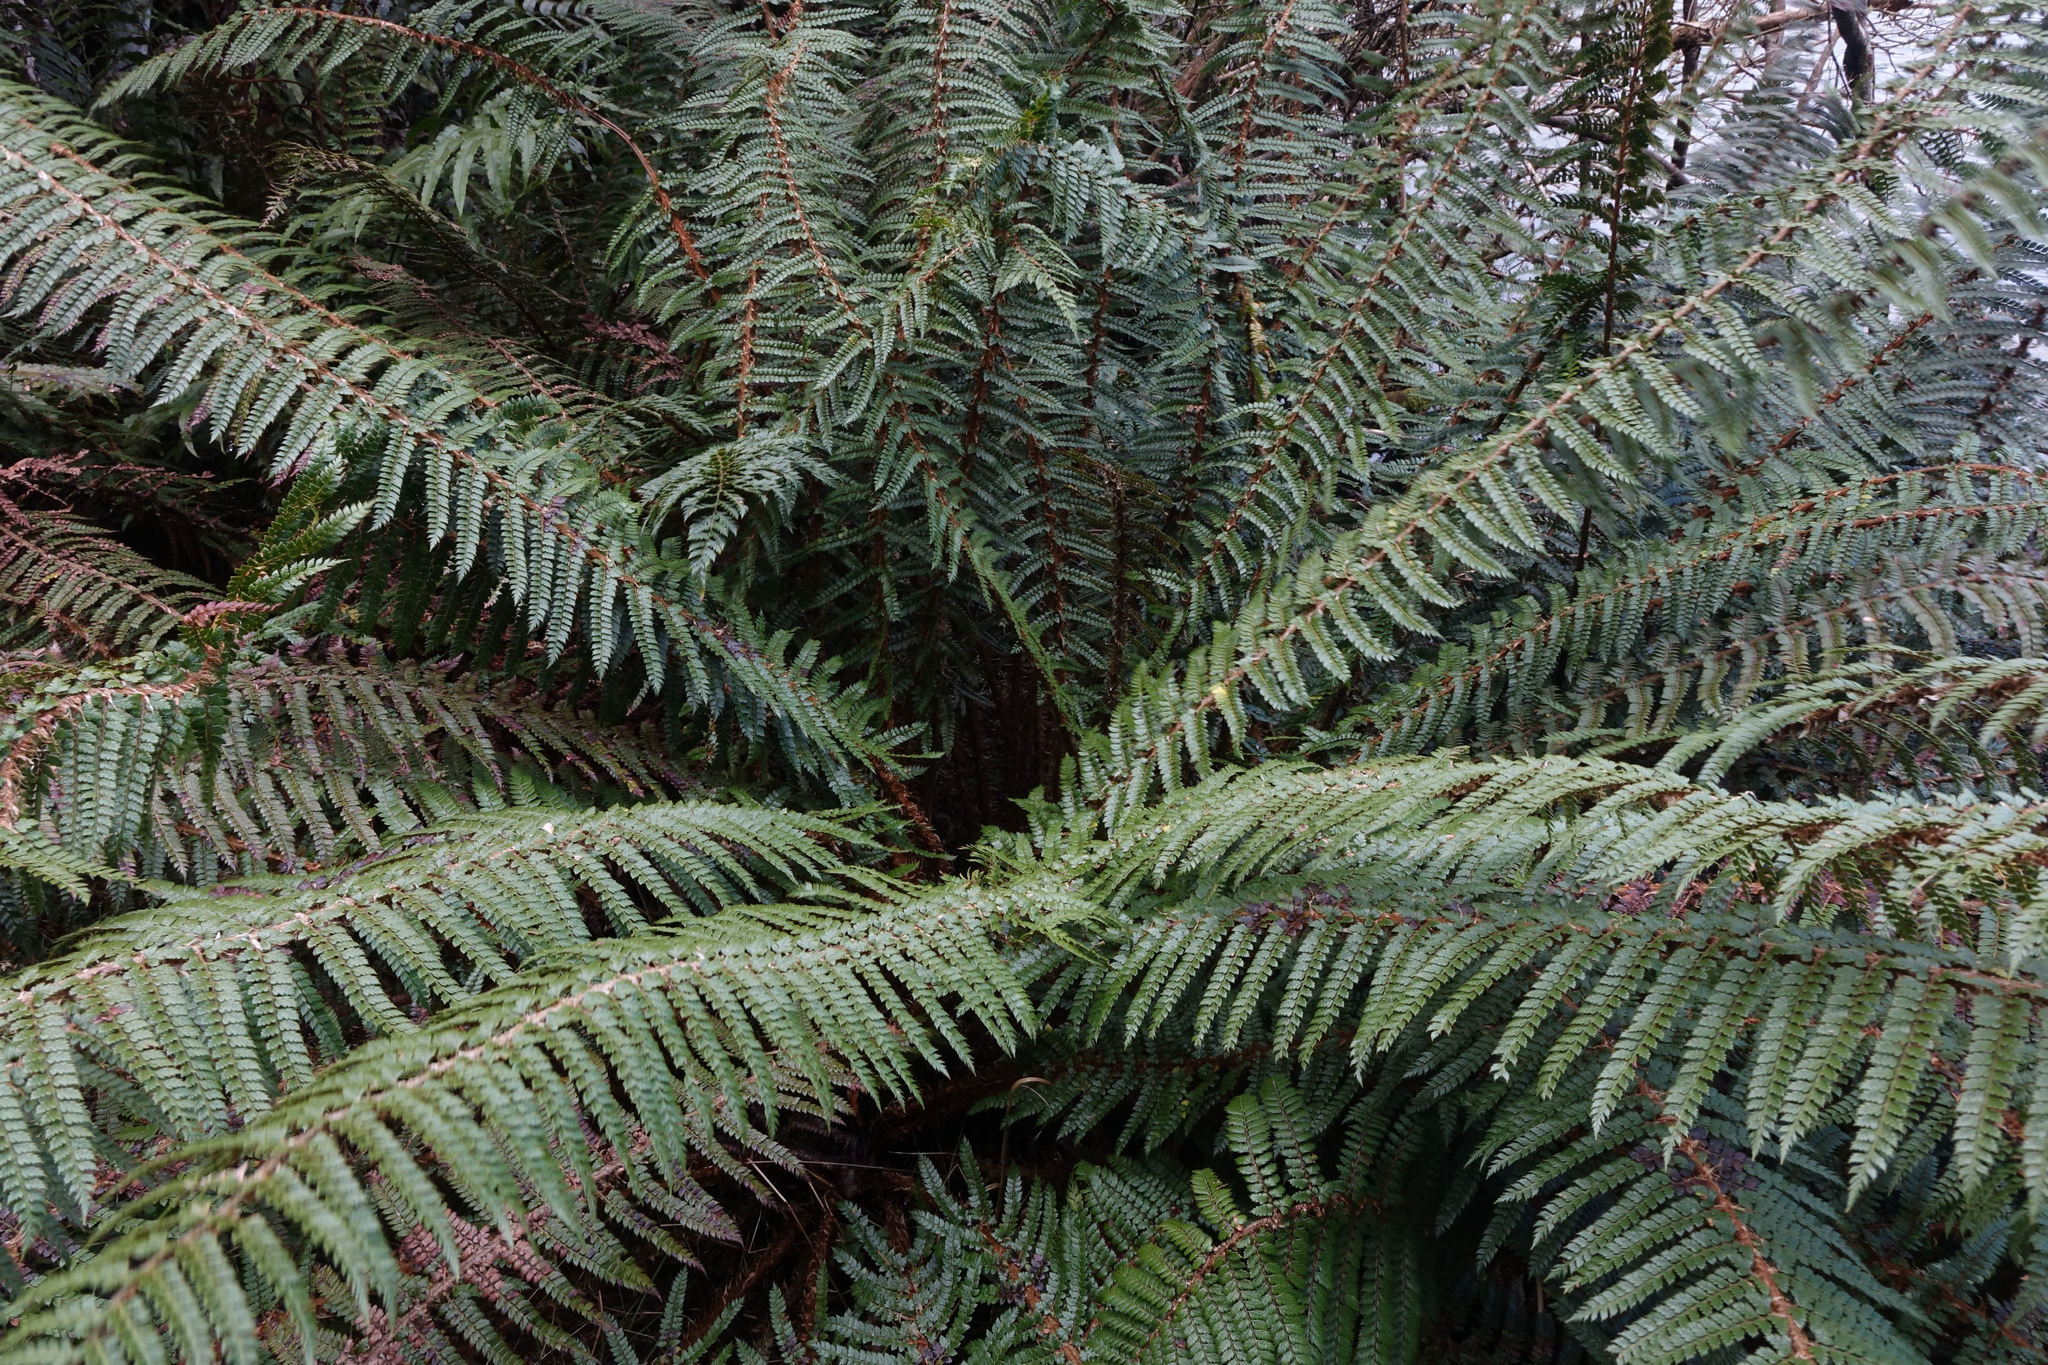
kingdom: Plantae
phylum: Tracheophyta
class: Polypodiopsida
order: Polypodiales
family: Dryopteridaceae
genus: Polystichum
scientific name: Polystichum vestitum
